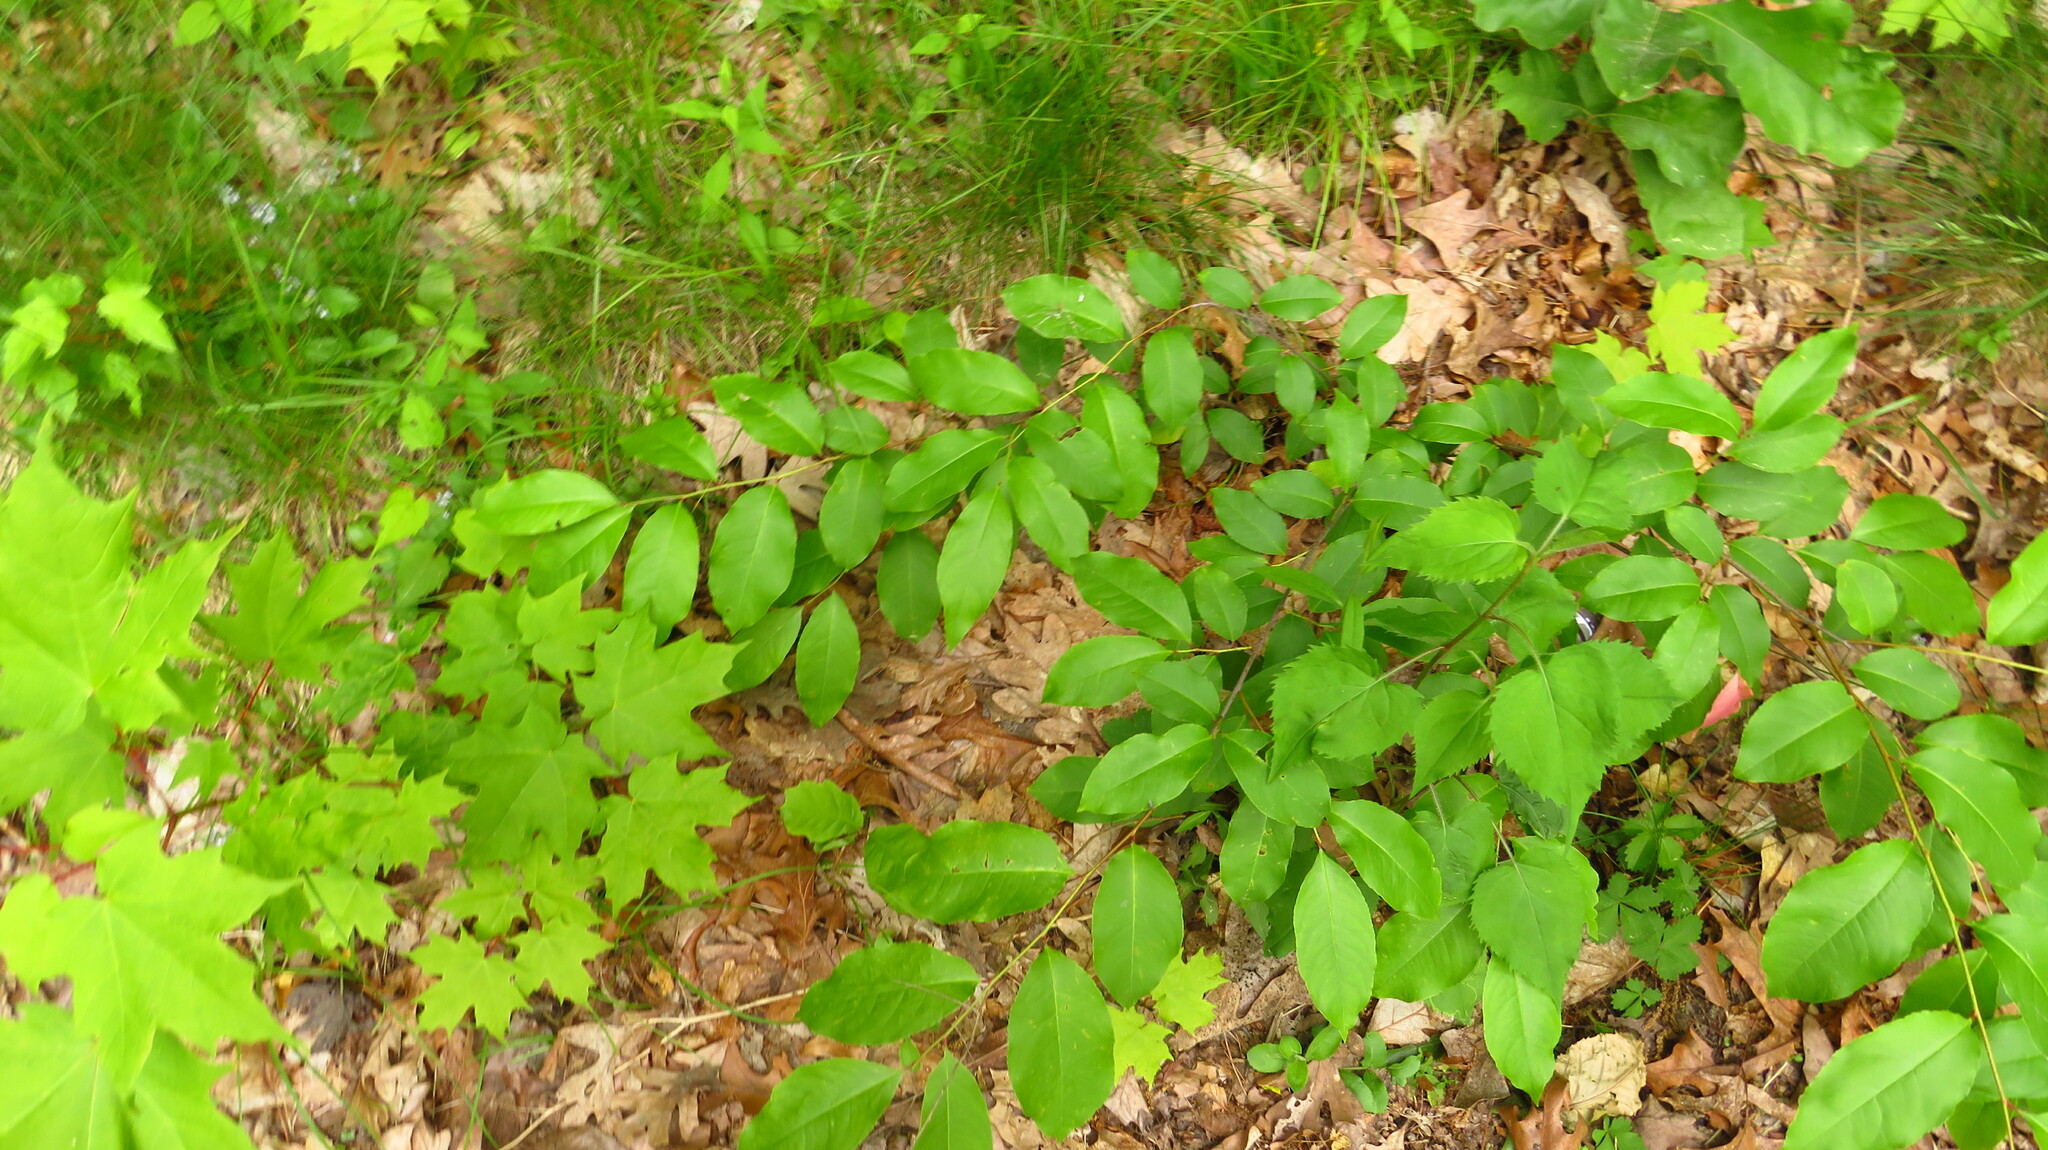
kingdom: Plantae
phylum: Tracheophyta
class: Magnoliopsida
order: Rosales
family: Rosaceae
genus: Prunus
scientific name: Prunus serotina
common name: Black cherry
